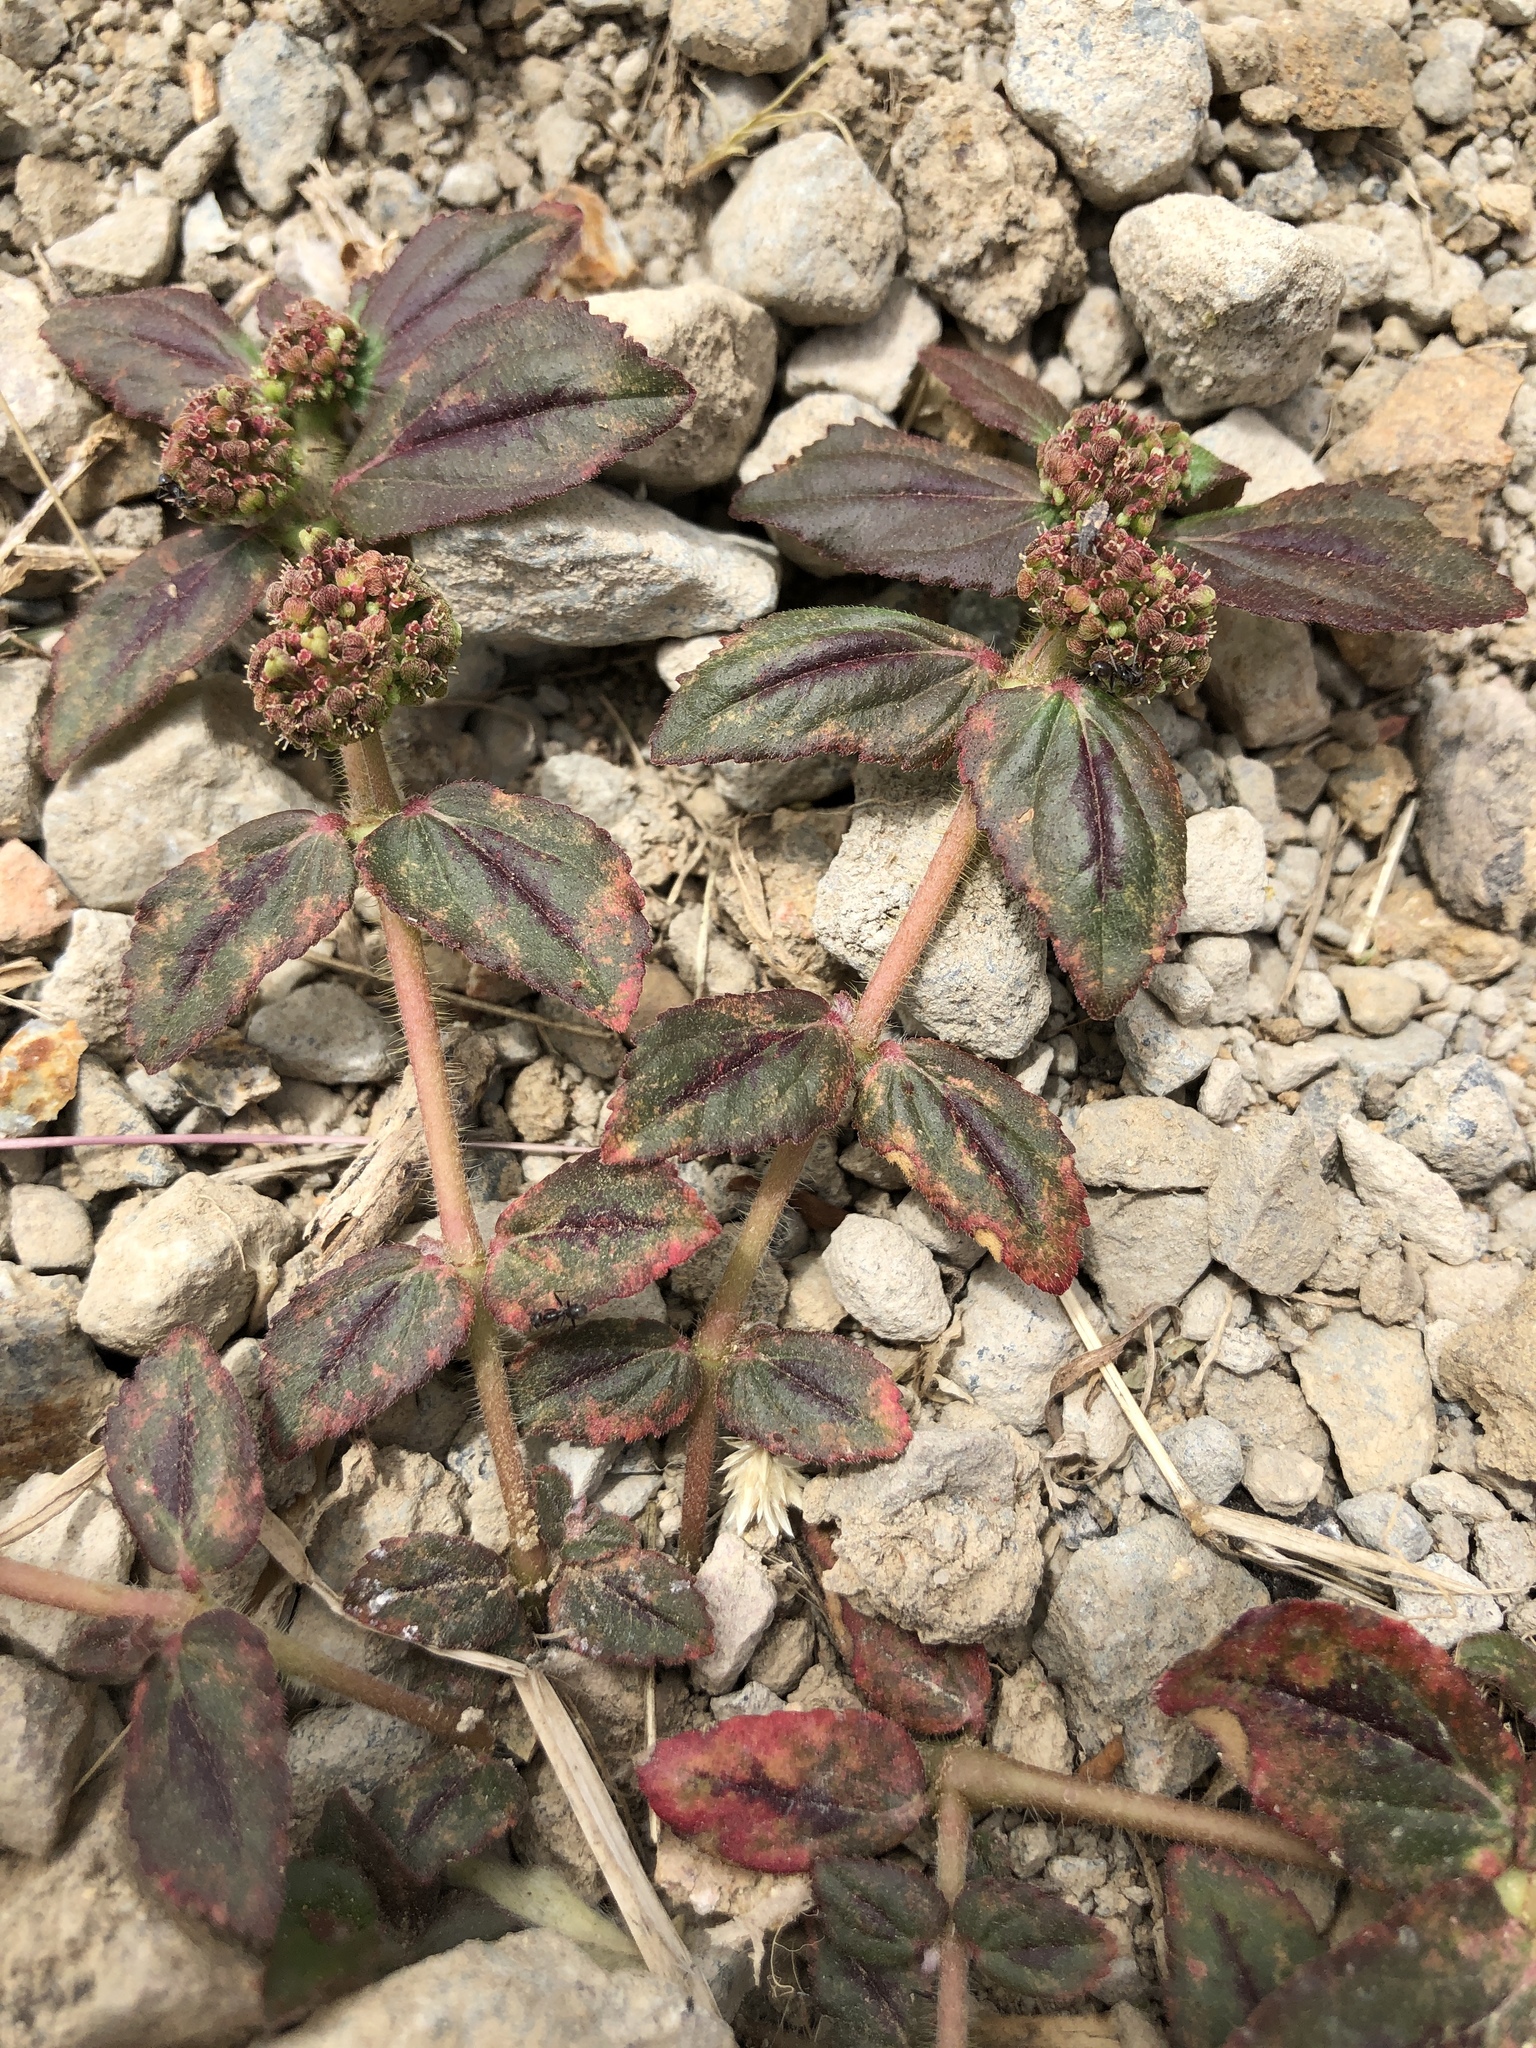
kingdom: Plantae
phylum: Tracheophyta
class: Magnoliopsida
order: Malpighiales
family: Euphorbiaceae
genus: Euphorbia
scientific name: Euphorbia hirta
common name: Pillpod sandmat
